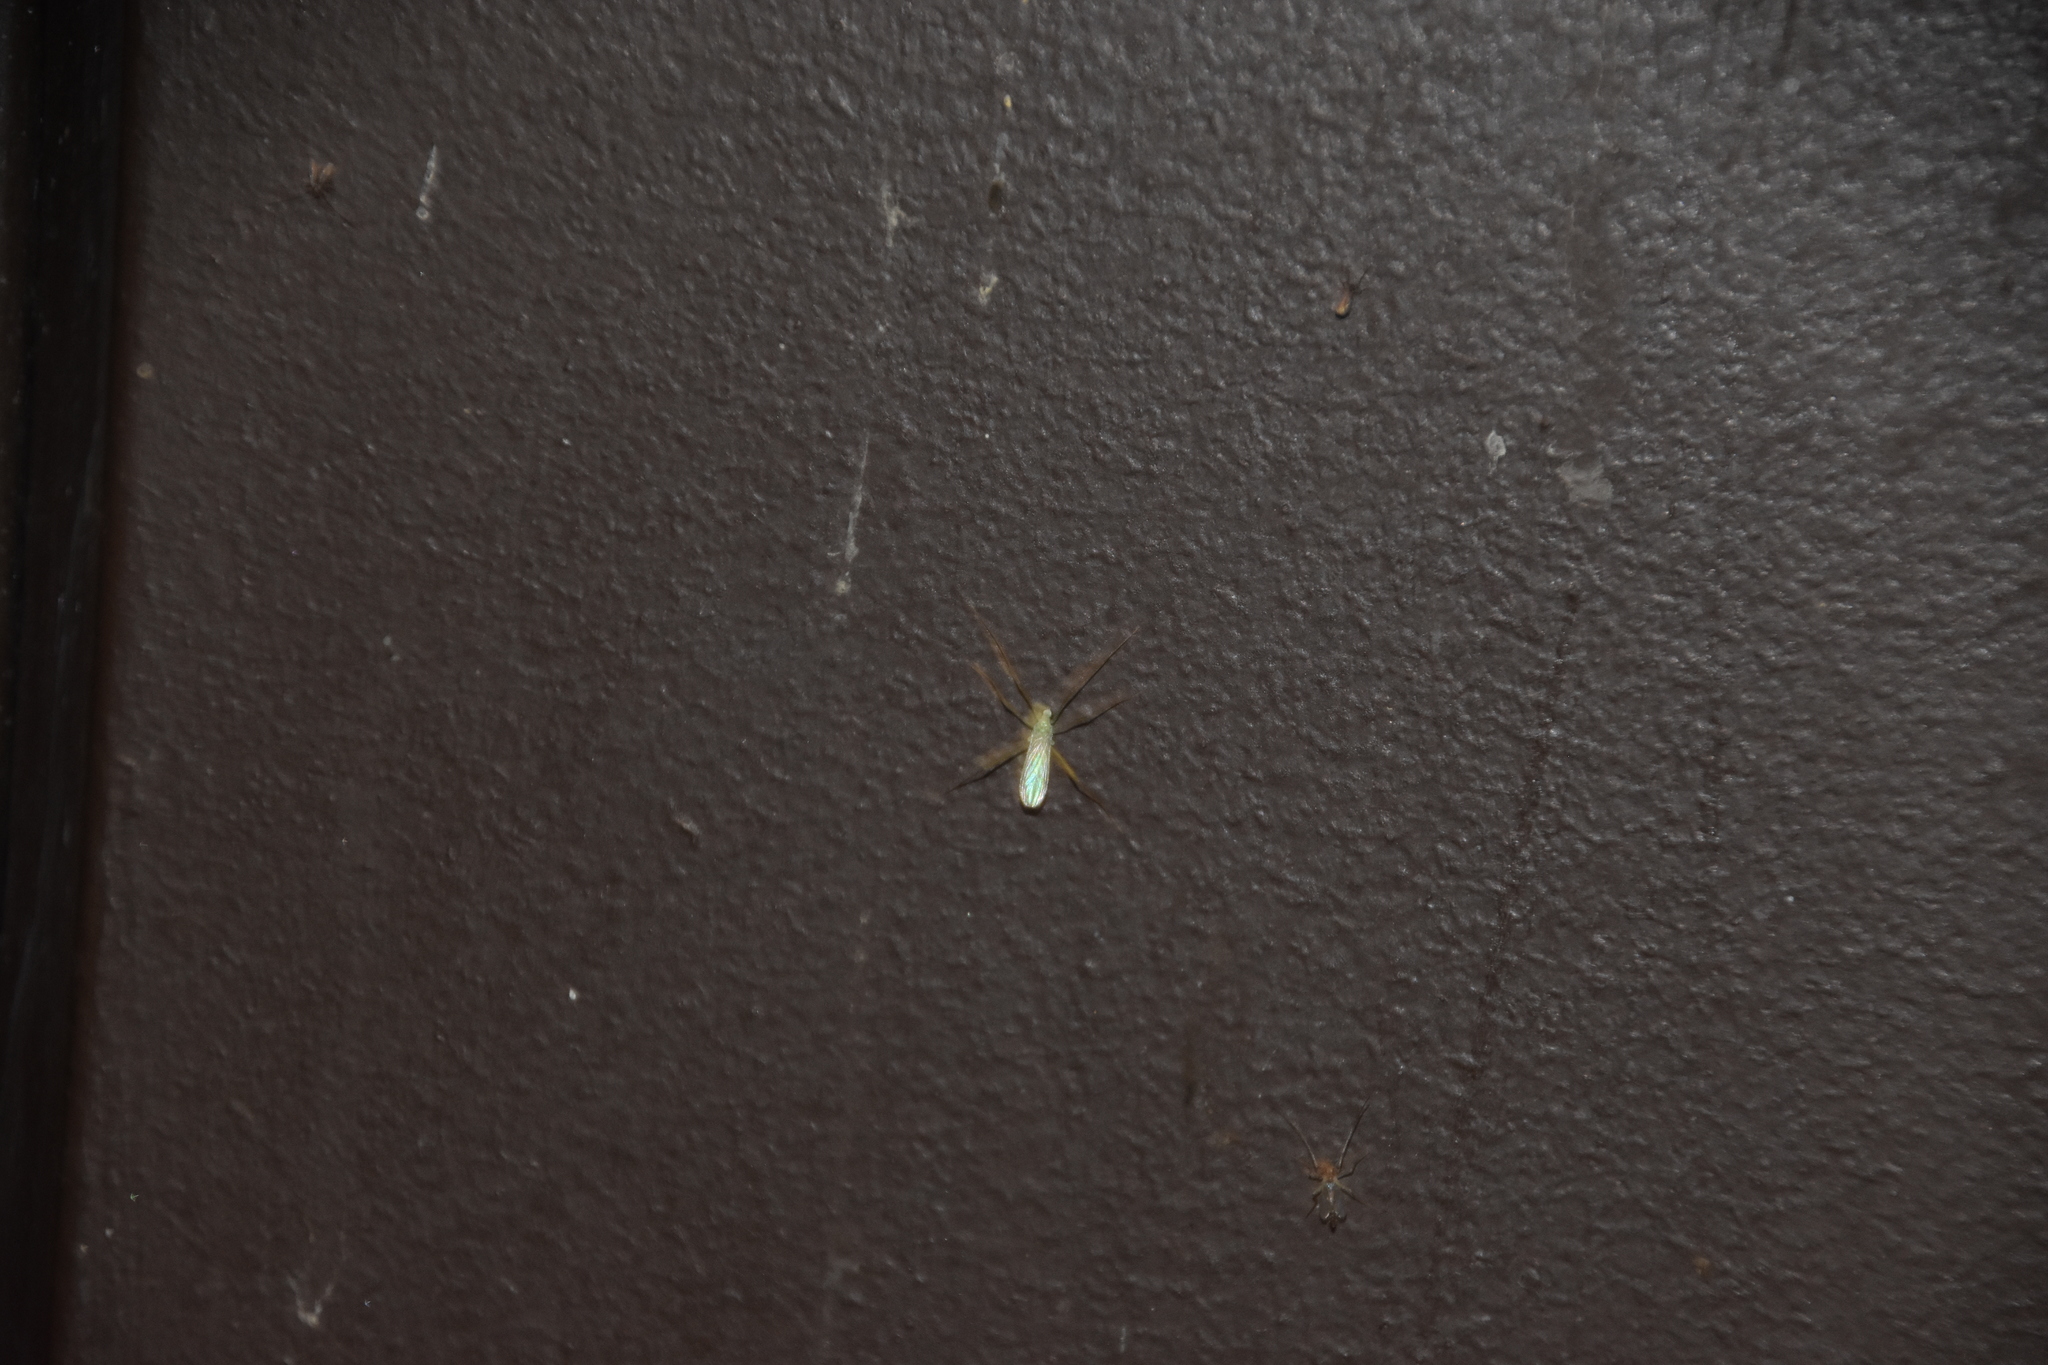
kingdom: Animalia
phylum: Arthropoda
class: Insecta
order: Diptera
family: Limoniidae
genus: Erioptera
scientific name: Erioptera
